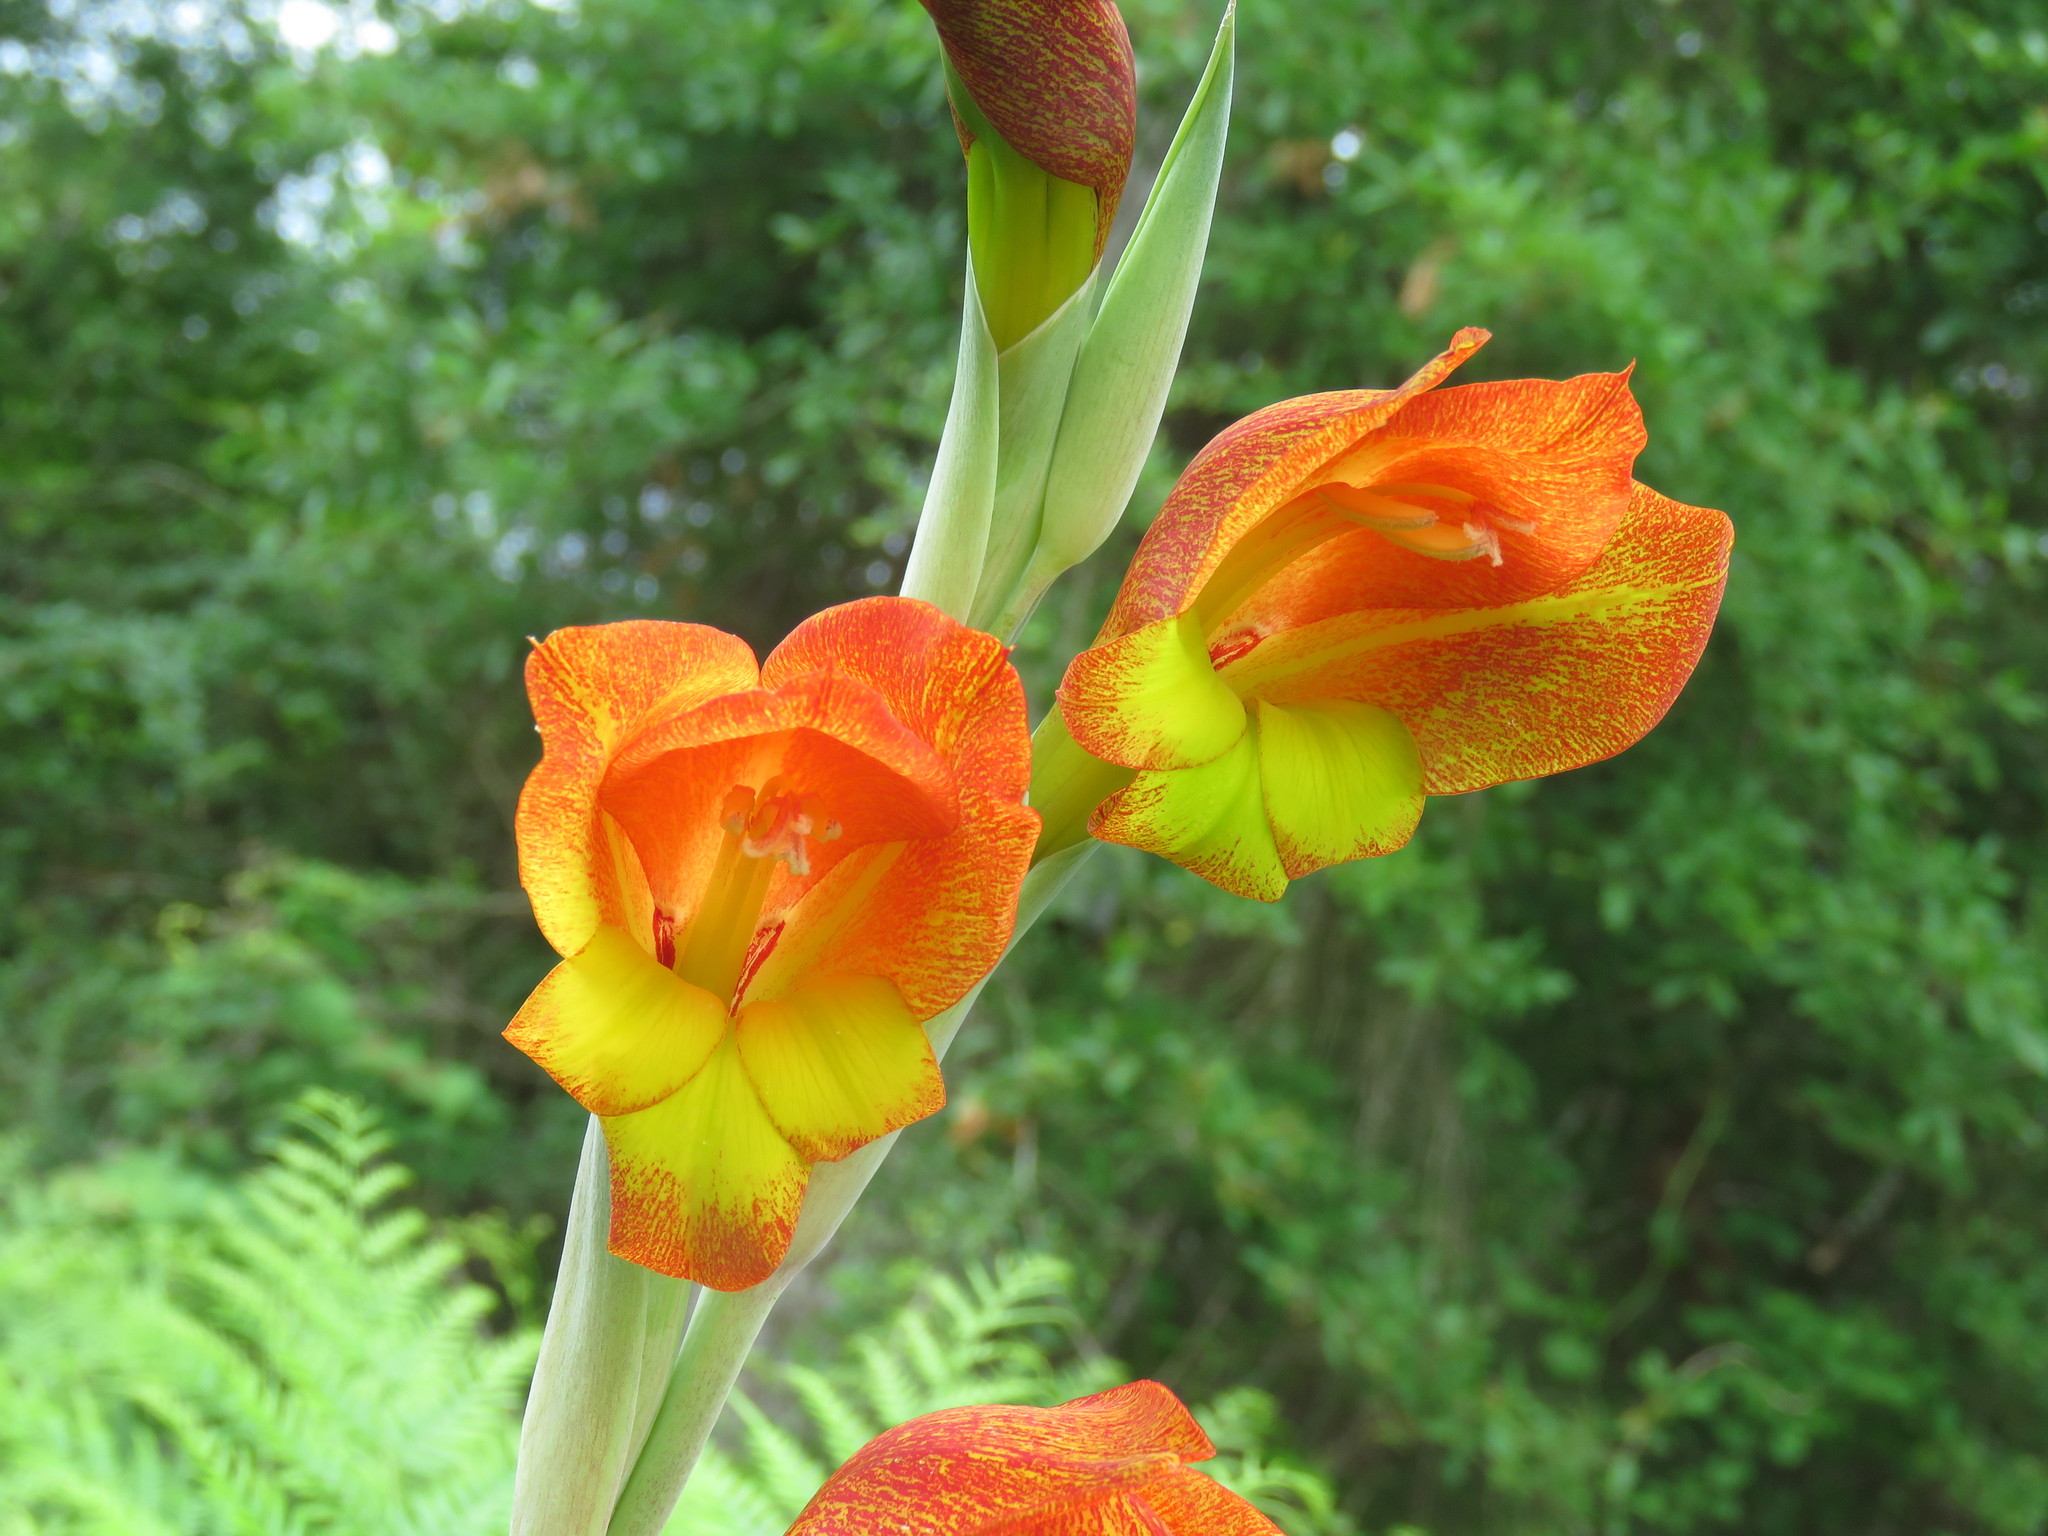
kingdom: Plantae
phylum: Tracheophyta
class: Liliopsida
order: Asparagales
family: Iridaceae
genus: Gladiolus
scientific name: Gladiolus dalenii
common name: Cornflag
